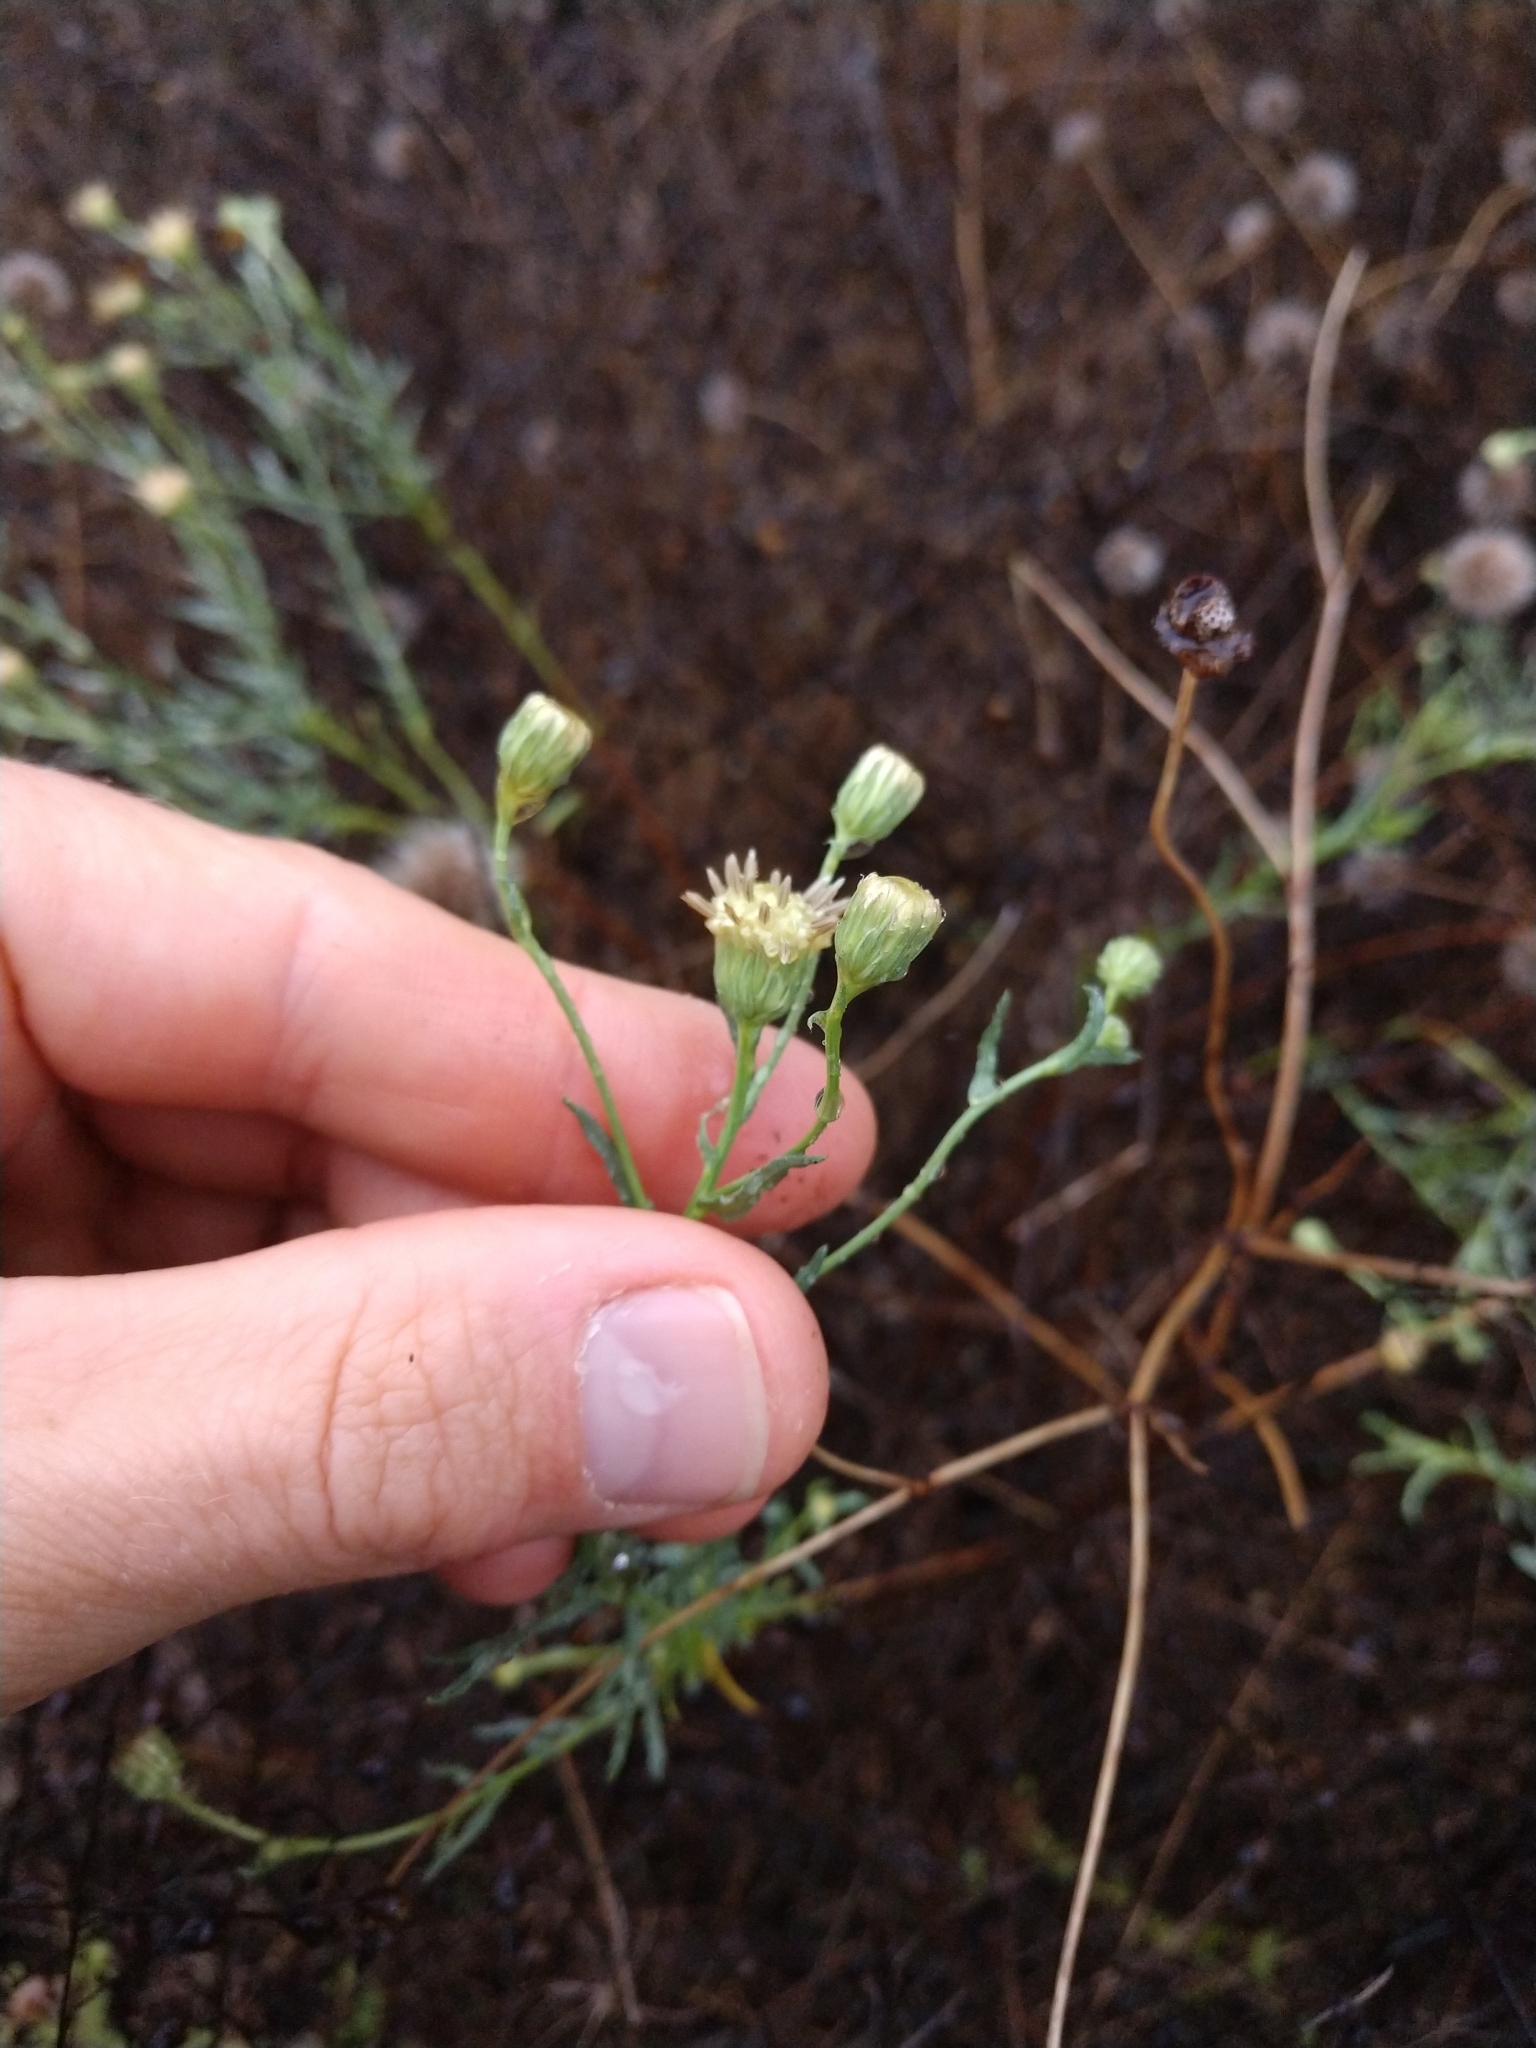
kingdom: Plantae
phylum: Tracheophyta
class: Magnoliopsida
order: Asterales
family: Asteraceae
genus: Baccharis
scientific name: Baccharis texana
